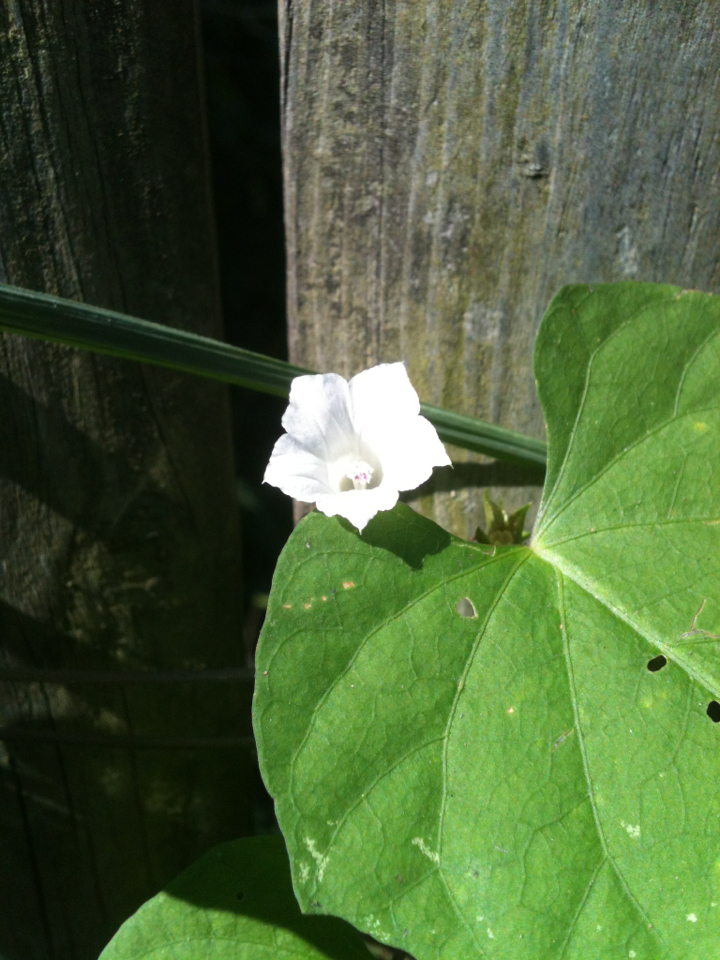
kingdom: Plantae
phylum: Tracheophyta
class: Magnoliopsida
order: Solanales
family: Convolvulaceae
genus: Ipomoea
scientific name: Ipomoea lacunosa
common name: White morning-glory
